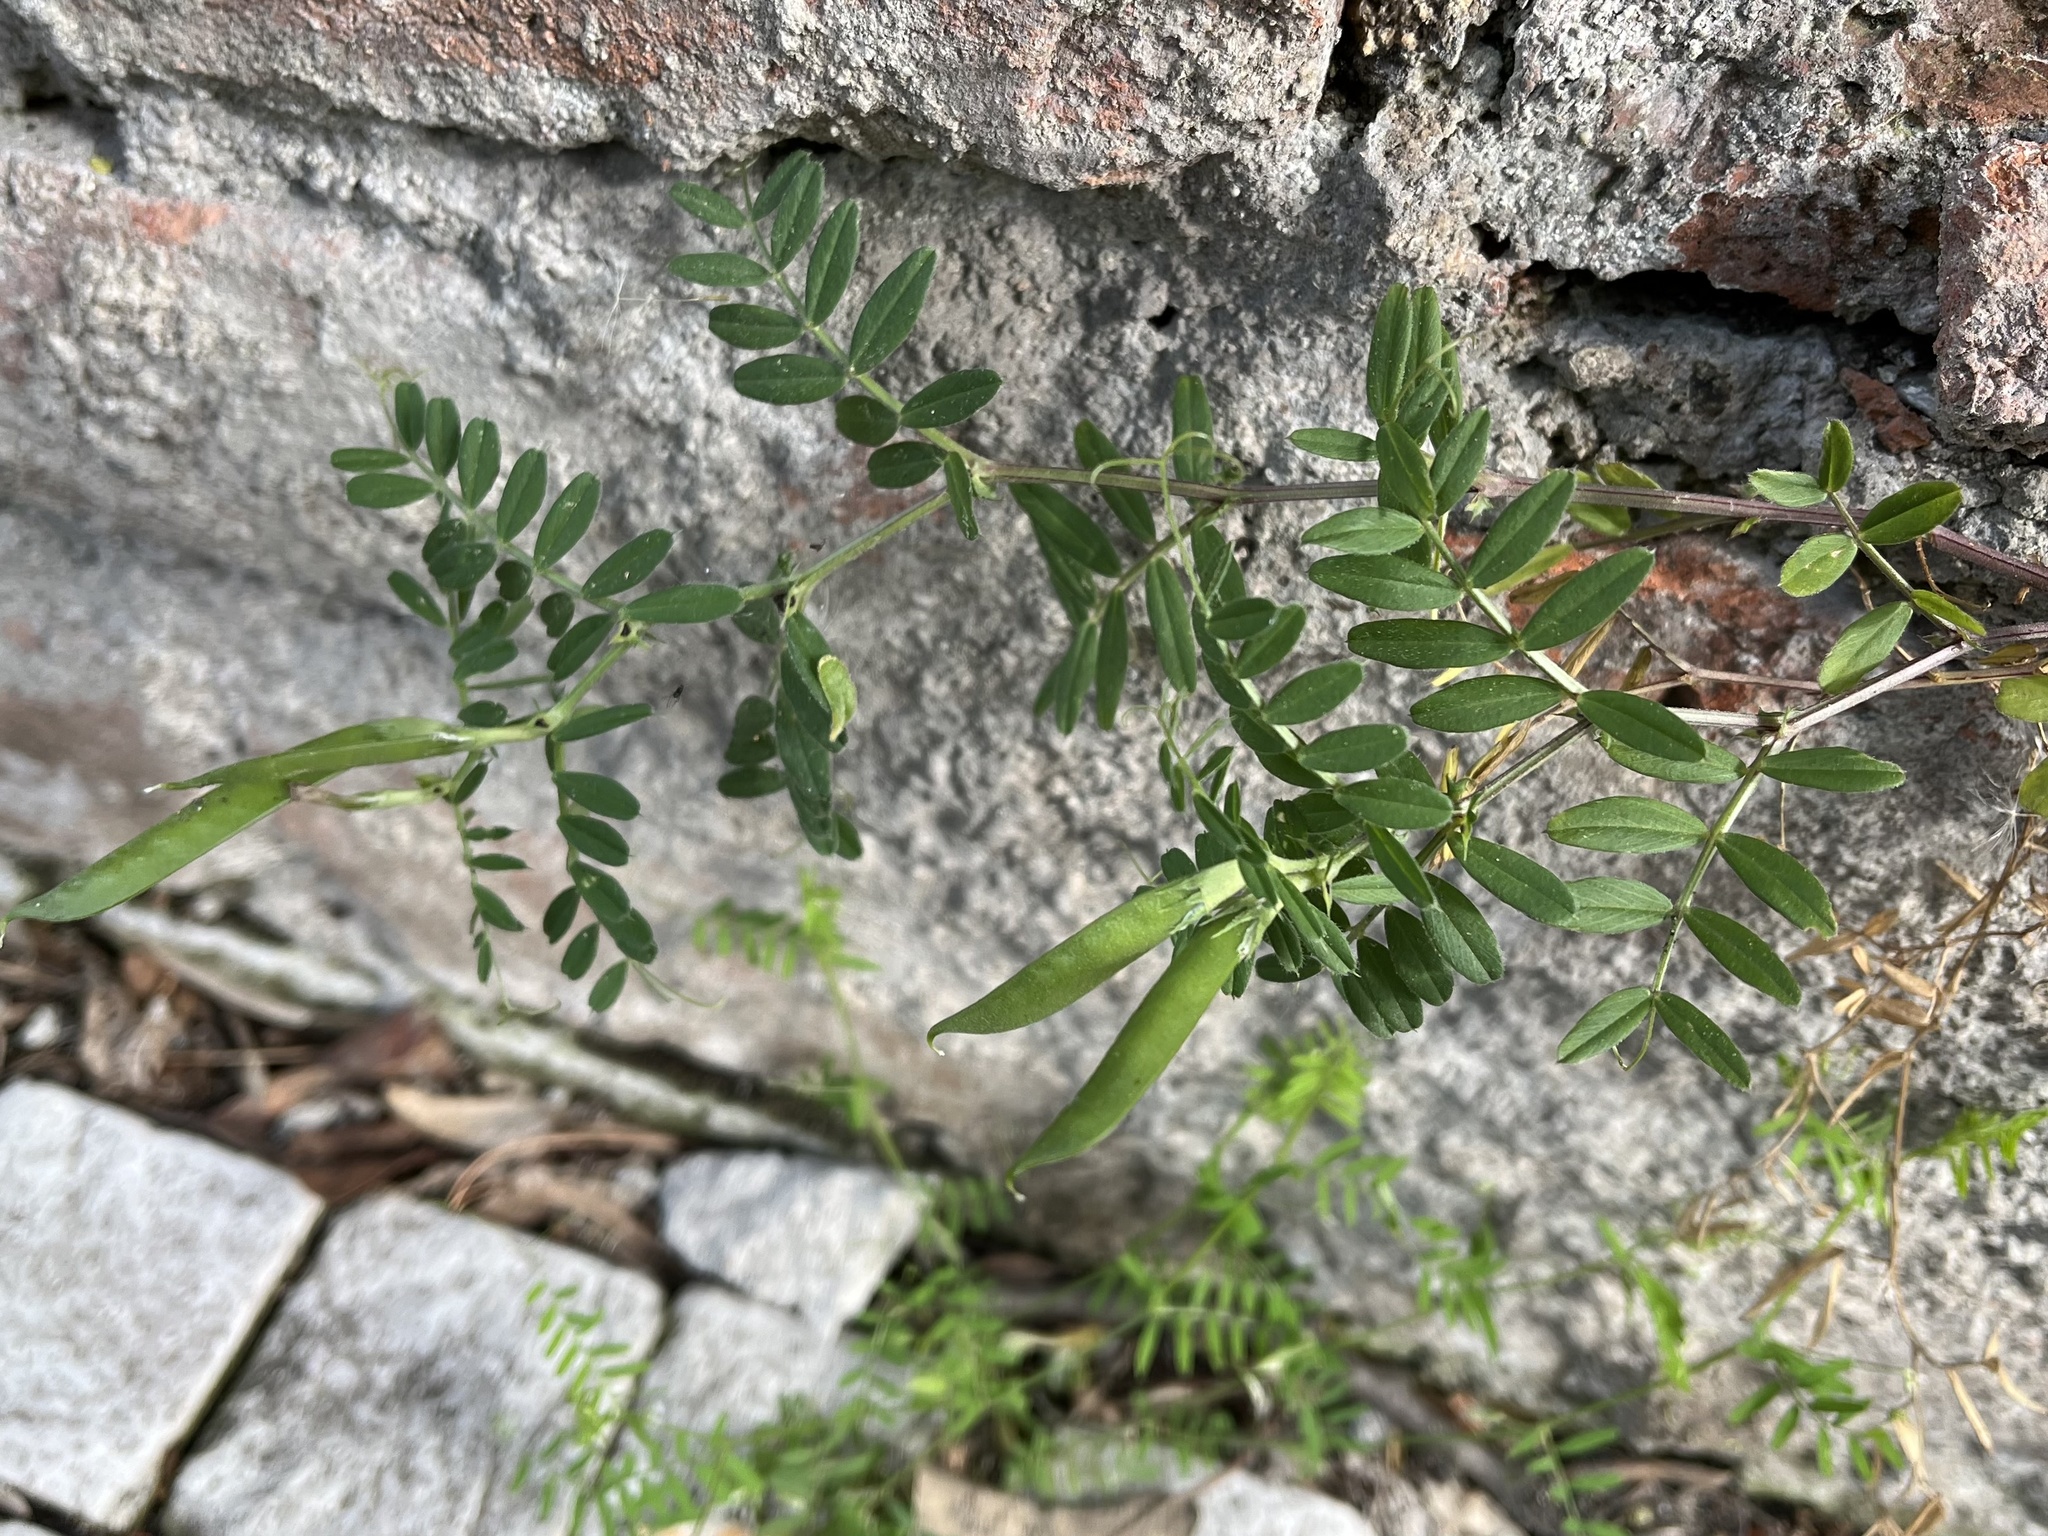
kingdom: Plantae
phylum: Tracheophyta
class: Magnoliopsida
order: Fabales
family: Fabaceae
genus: Vicia
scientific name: Vicia sativa
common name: Garden vetch
